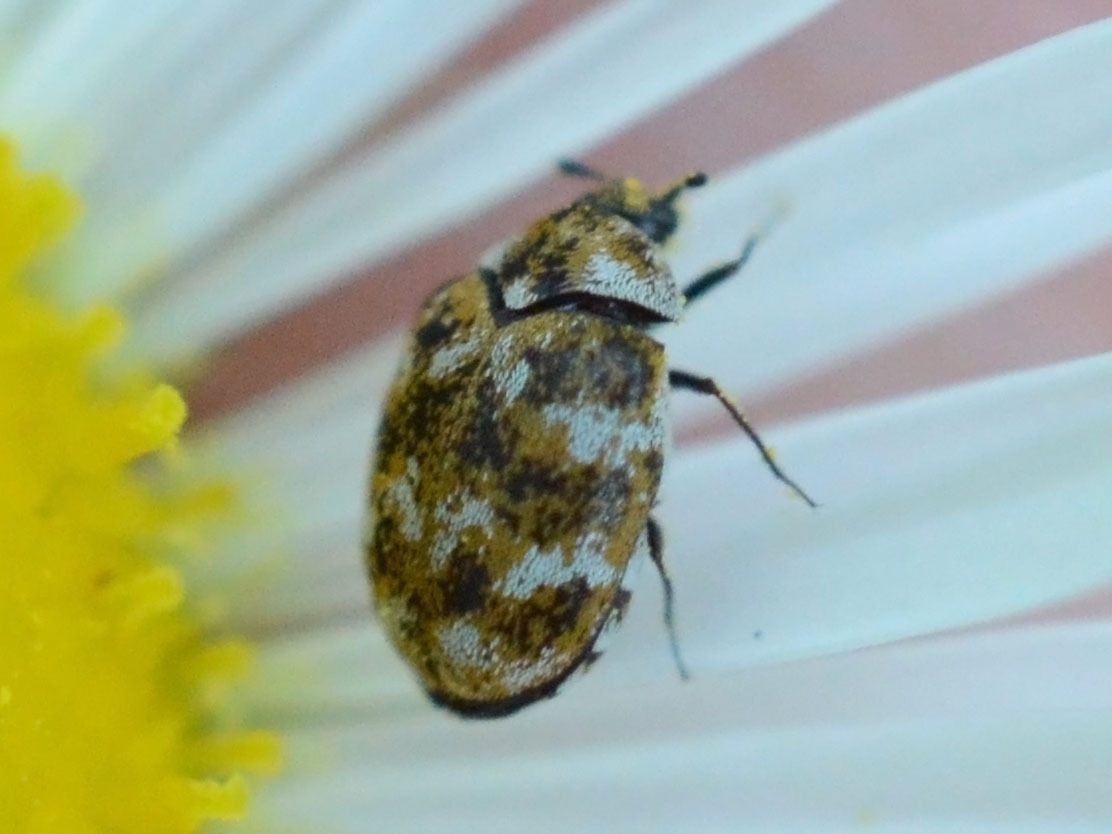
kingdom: Animalia
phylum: Arthropoda
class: Insecta
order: Coleoptera
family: Dermestidae
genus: Anthrenus
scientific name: Anthrenus verbasci
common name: Varied carpet beetle
